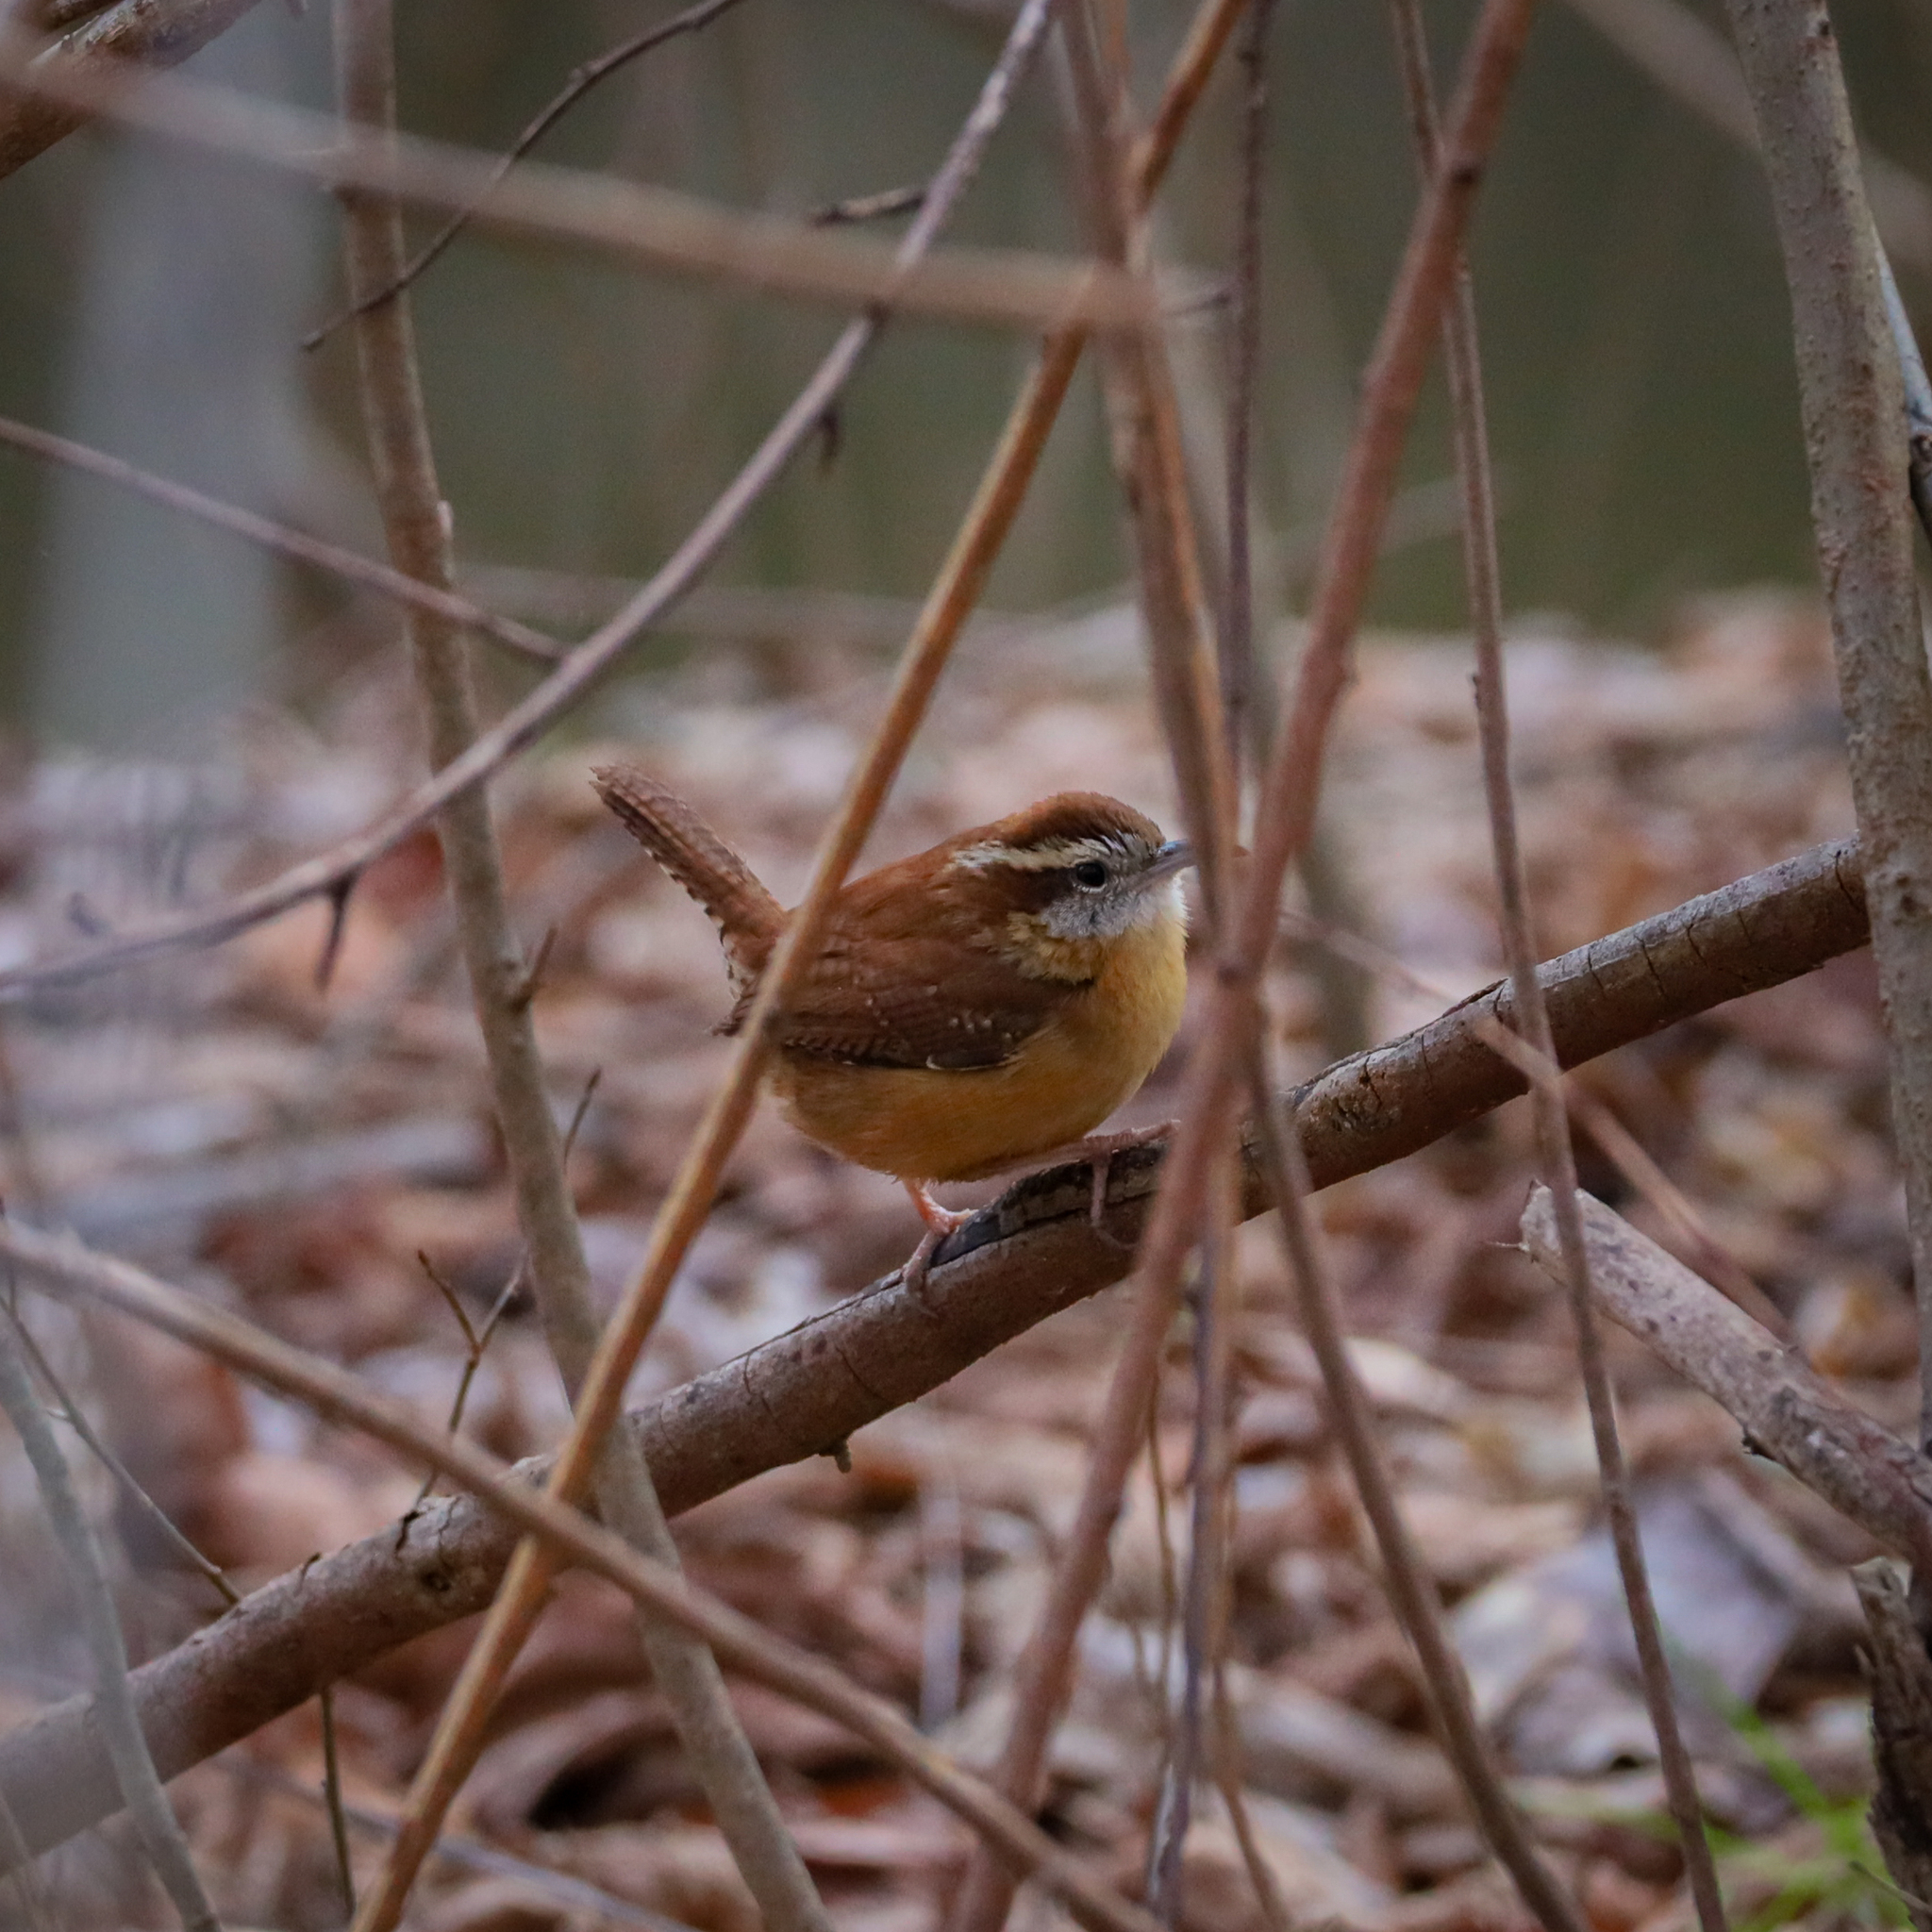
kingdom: Animalia
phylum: Chordata
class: Aves
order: Passeriformes
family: Troglodytidae
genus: Thryothorus
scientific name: Thryothorus ludovicianus
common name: Carolina wren
